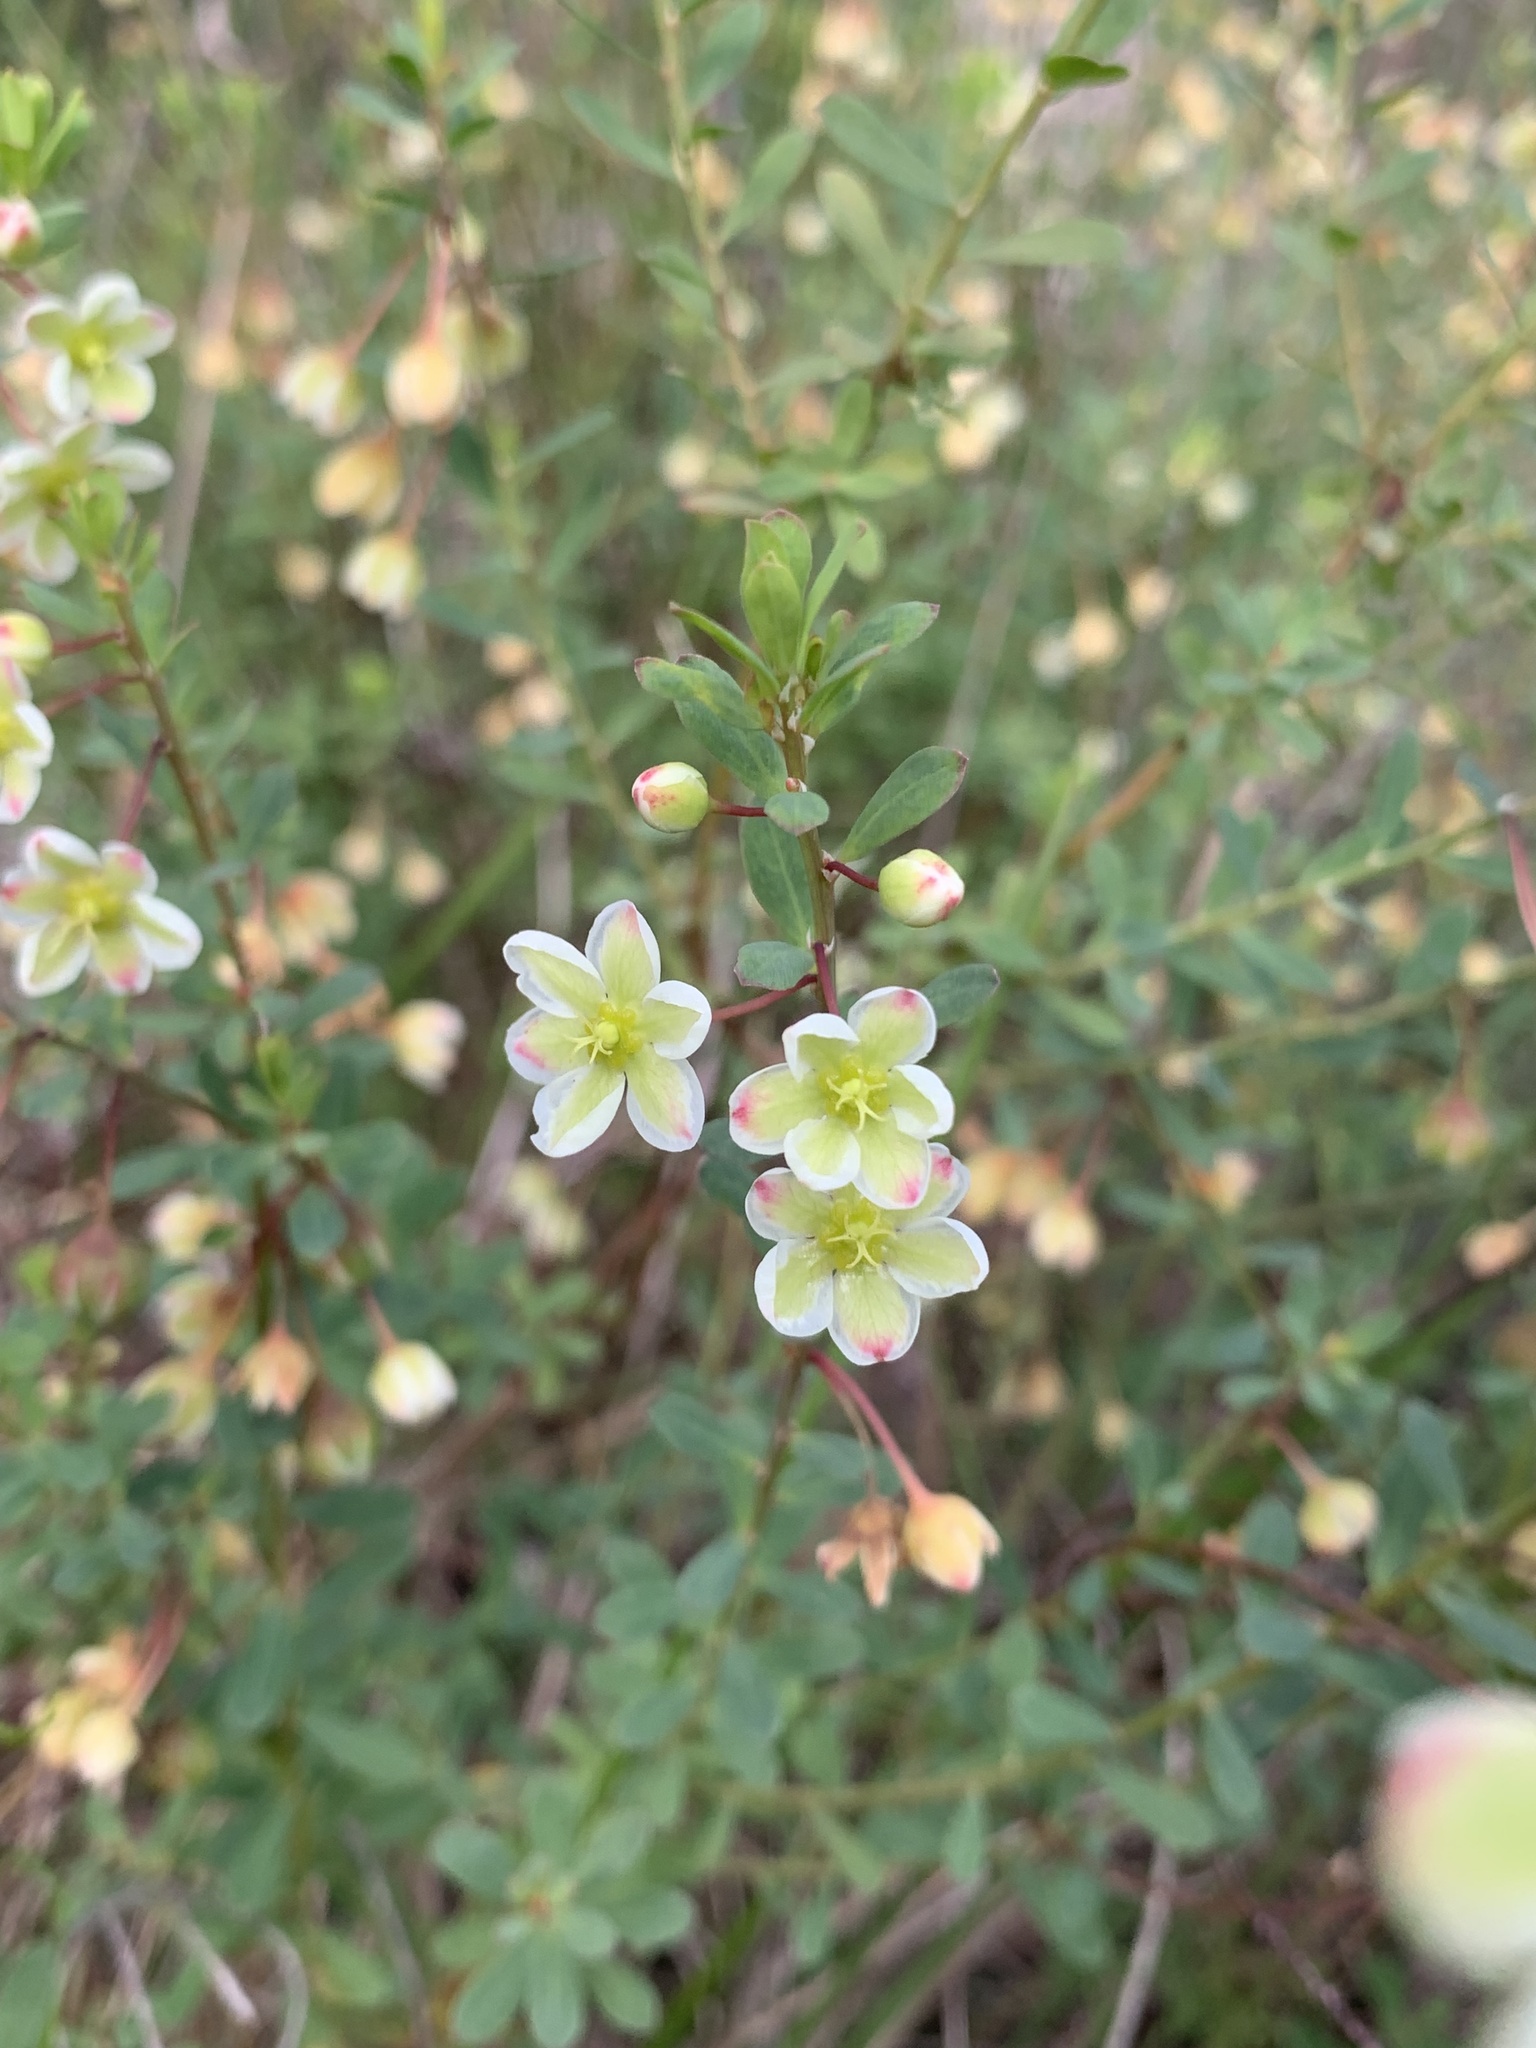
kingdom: Plantae
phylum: Tracheophyta
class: Magnoliopsida
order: Malpighiales
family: Phyllanthaceae
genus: Phyllanthus
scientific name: Phyllanthus calycinus
